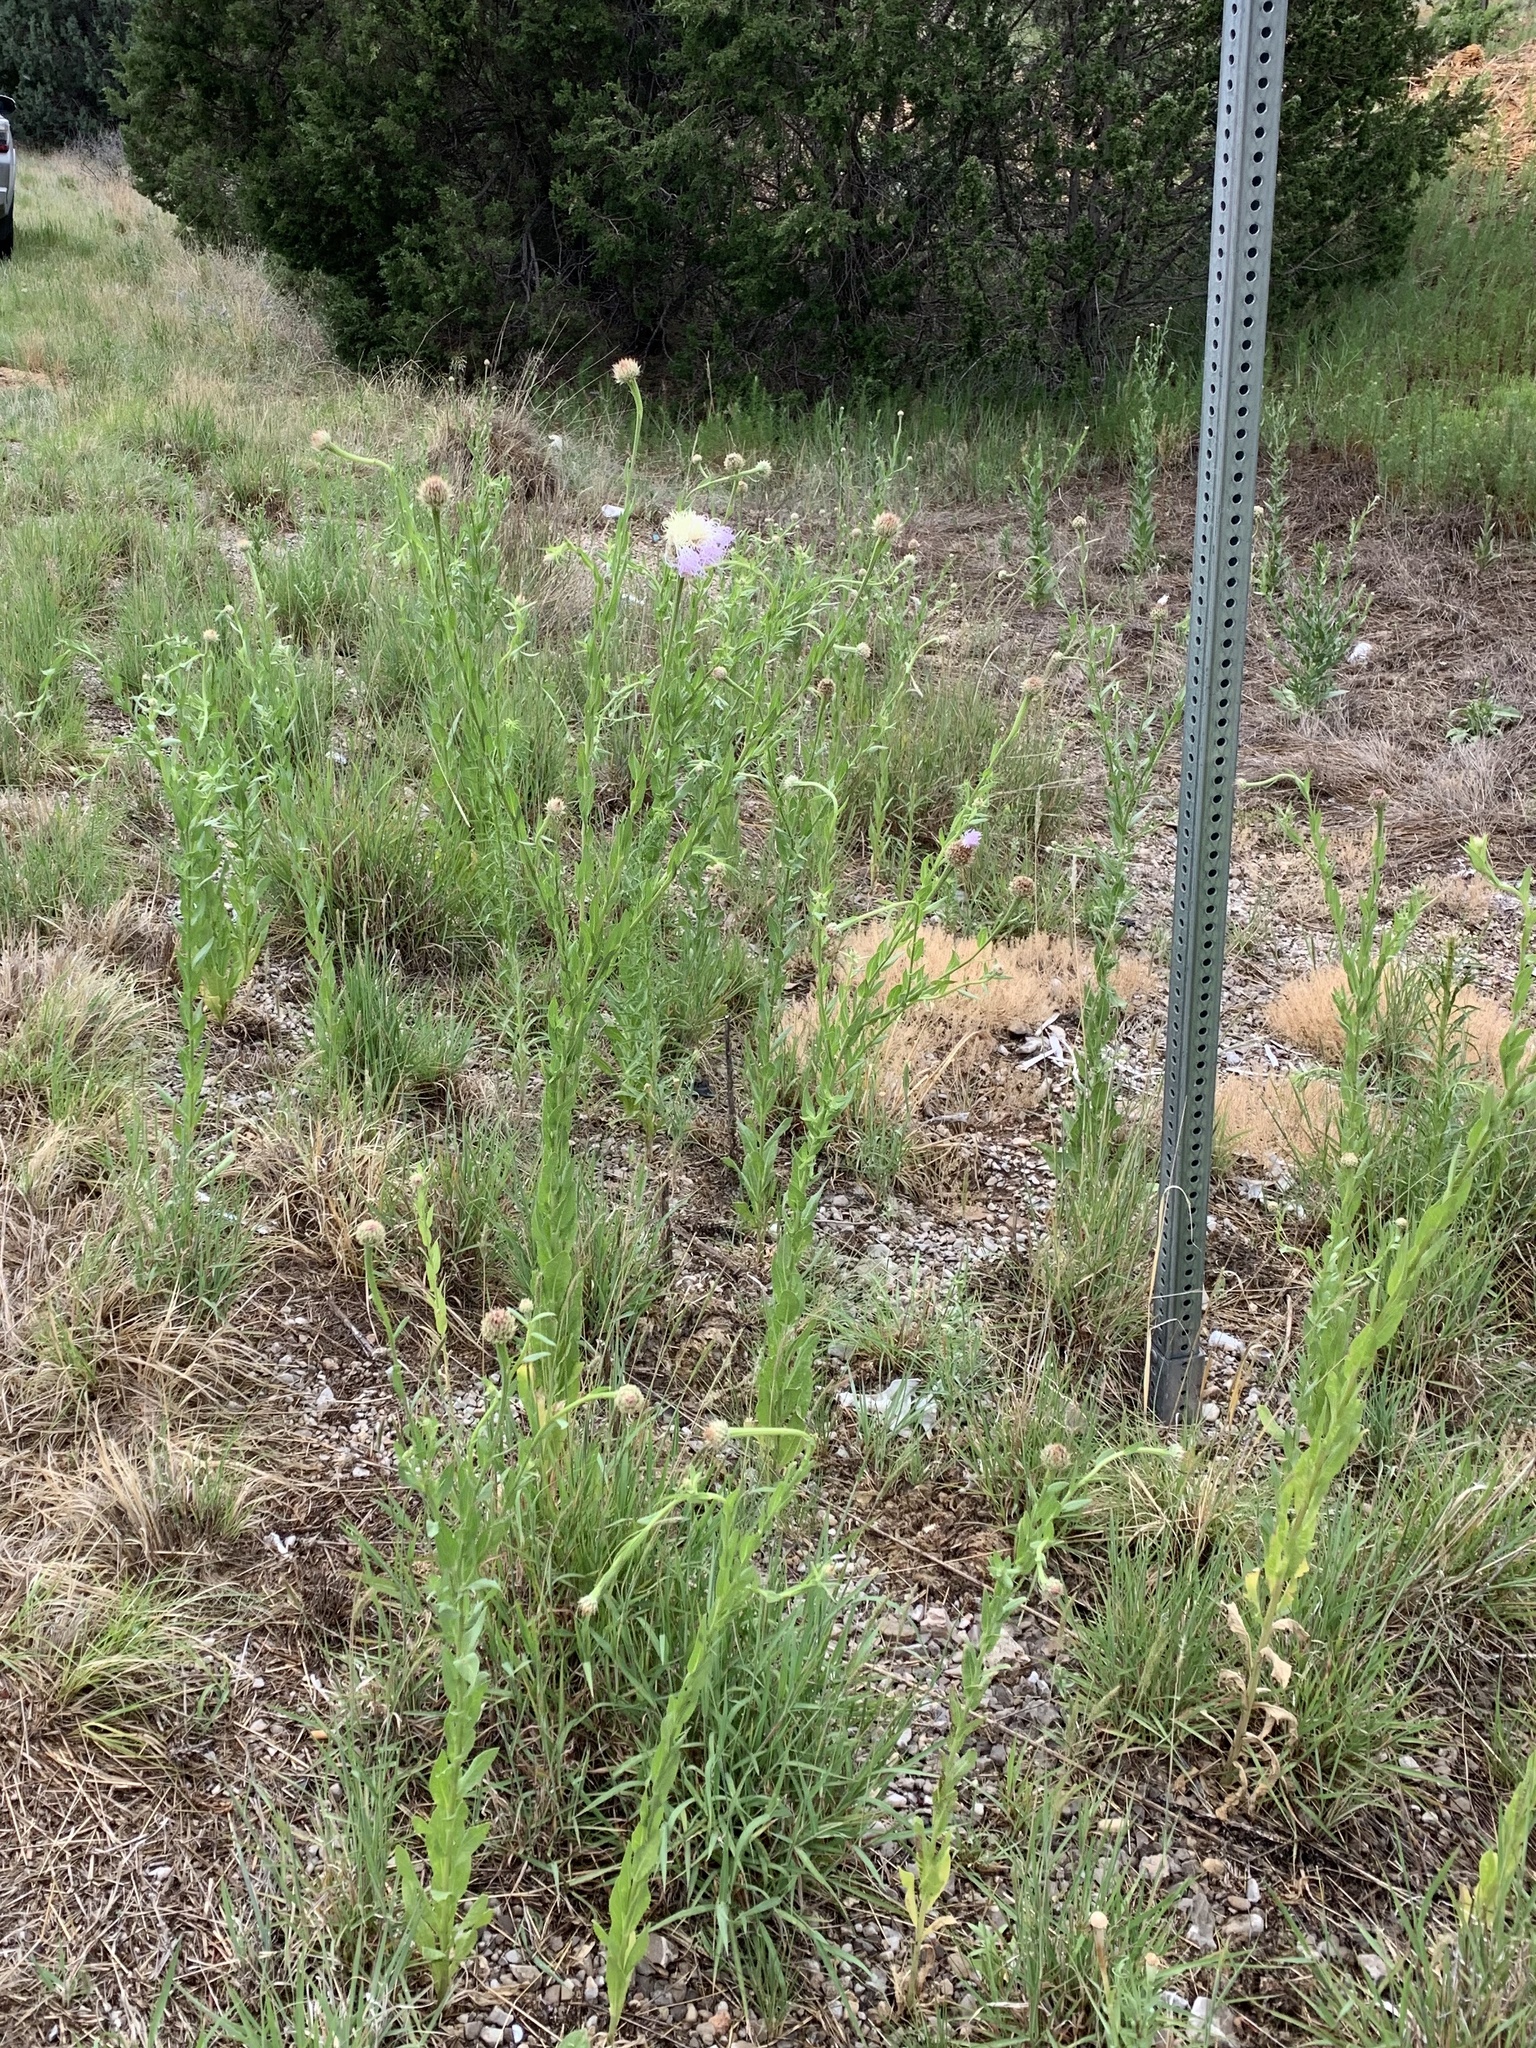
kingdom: Plantae
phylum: Tracheophyta
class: Magnoliopsida
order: Asterales
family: Asteraceae
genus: Plectocephalus
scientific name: Plectocephalus americanus
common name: American basket-flower
